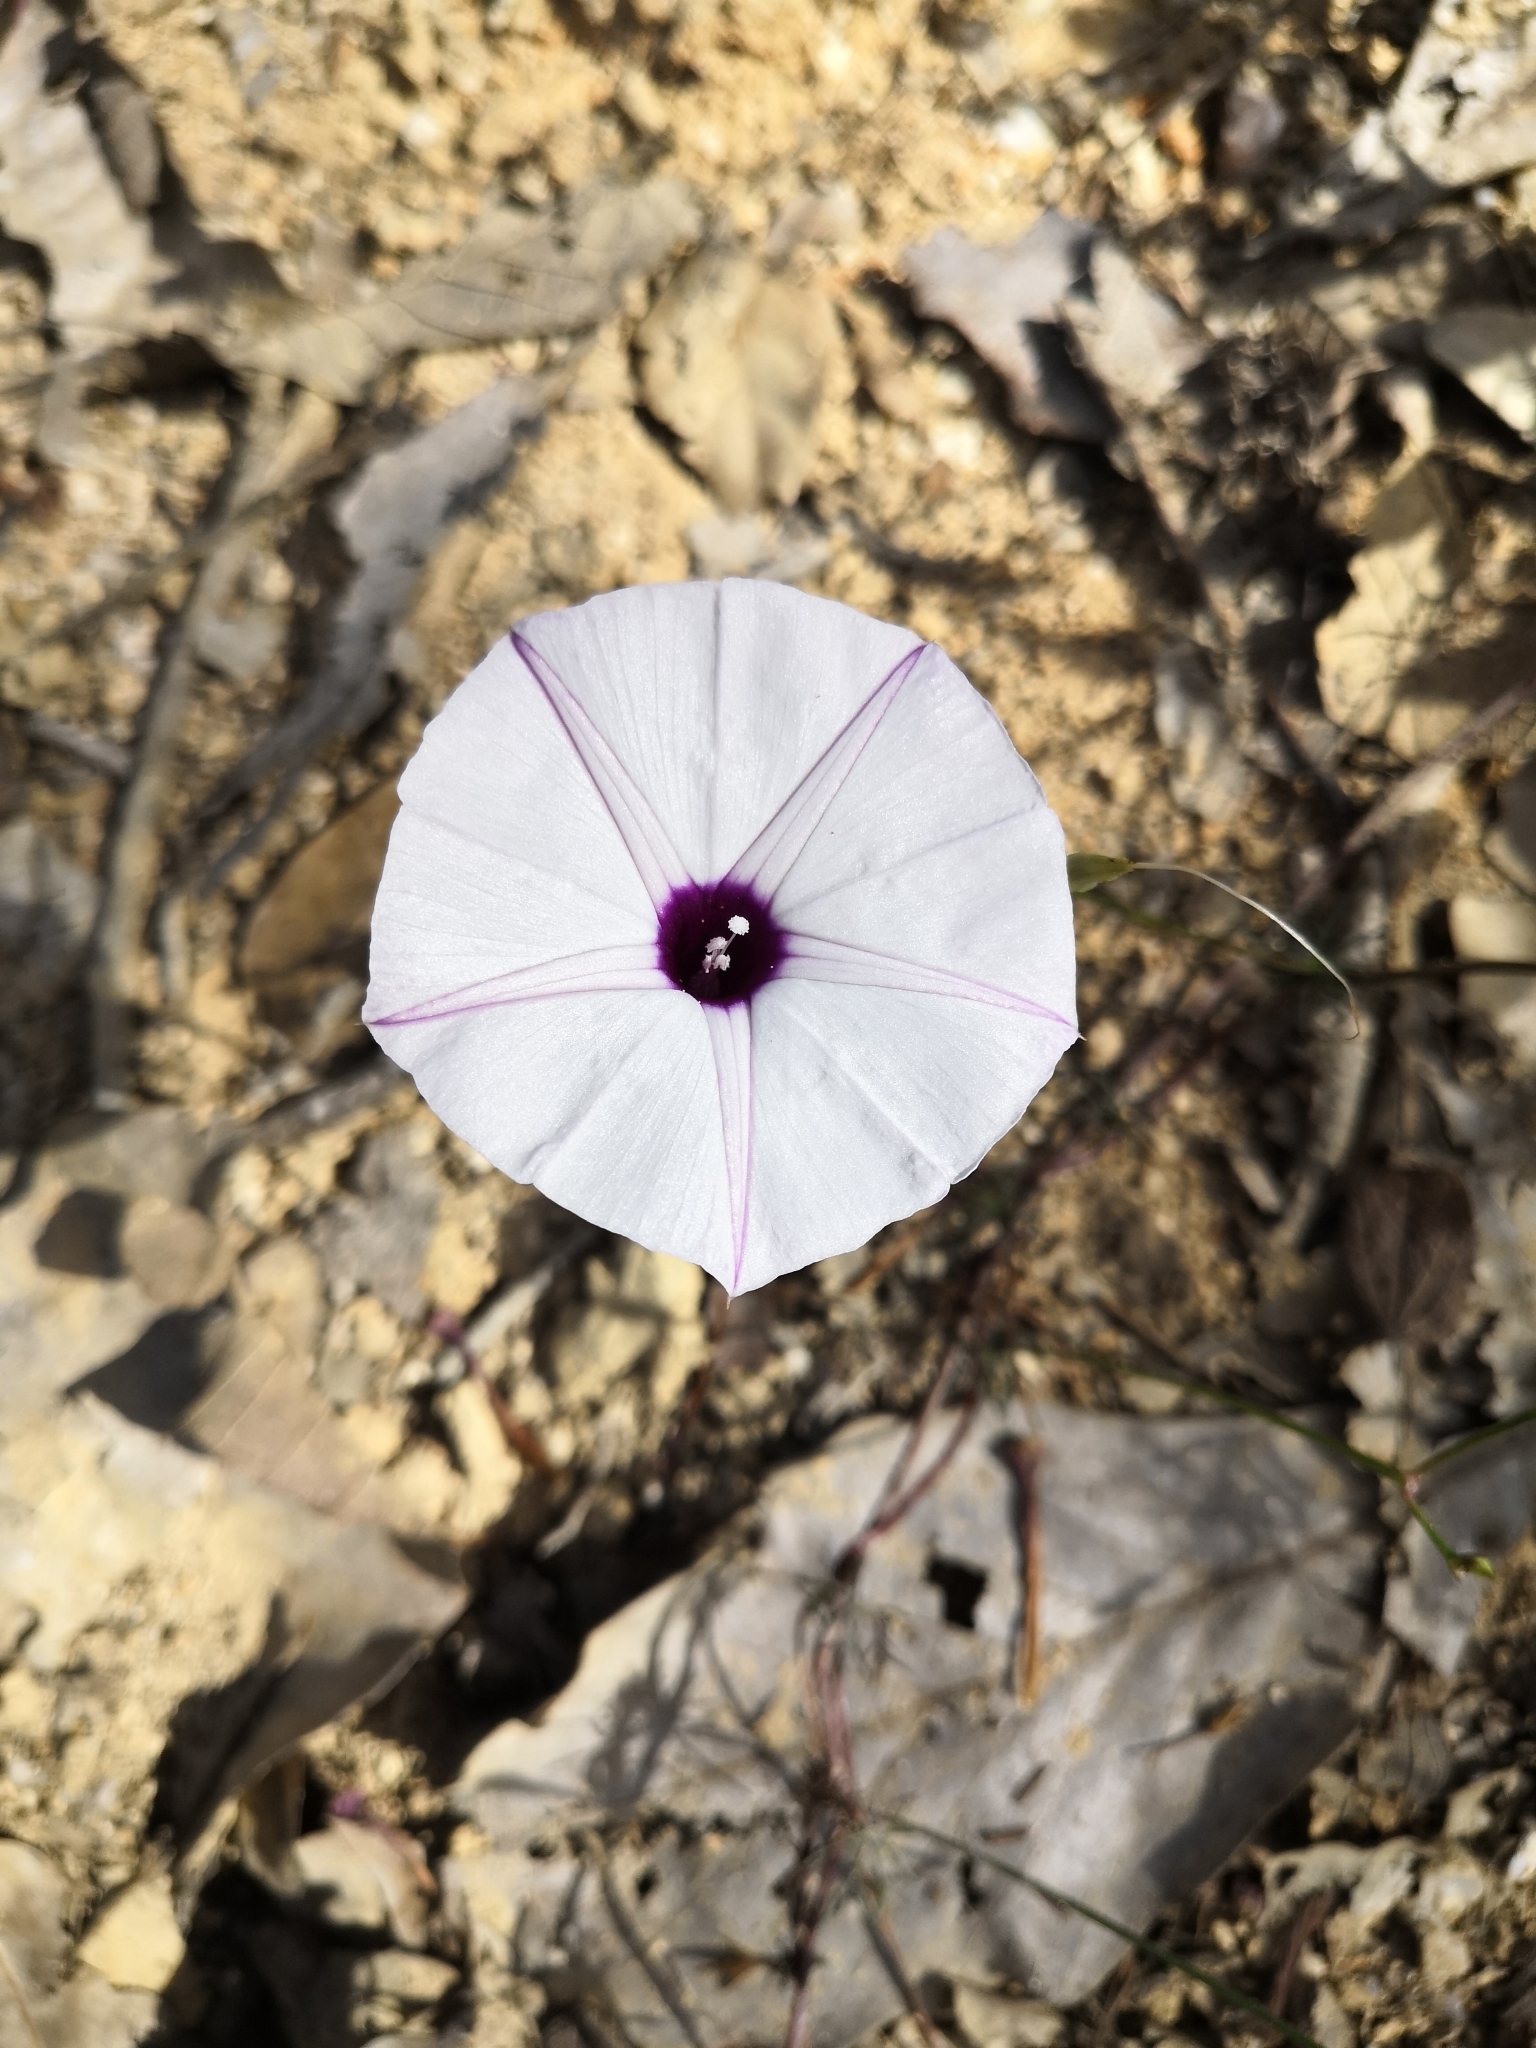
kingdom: Plantae
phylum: Tracheophyta
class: Magnoliopsida
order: Solanales
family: Convolvulaceae
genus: Ipomoea
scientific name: Ipomoea perpartita
